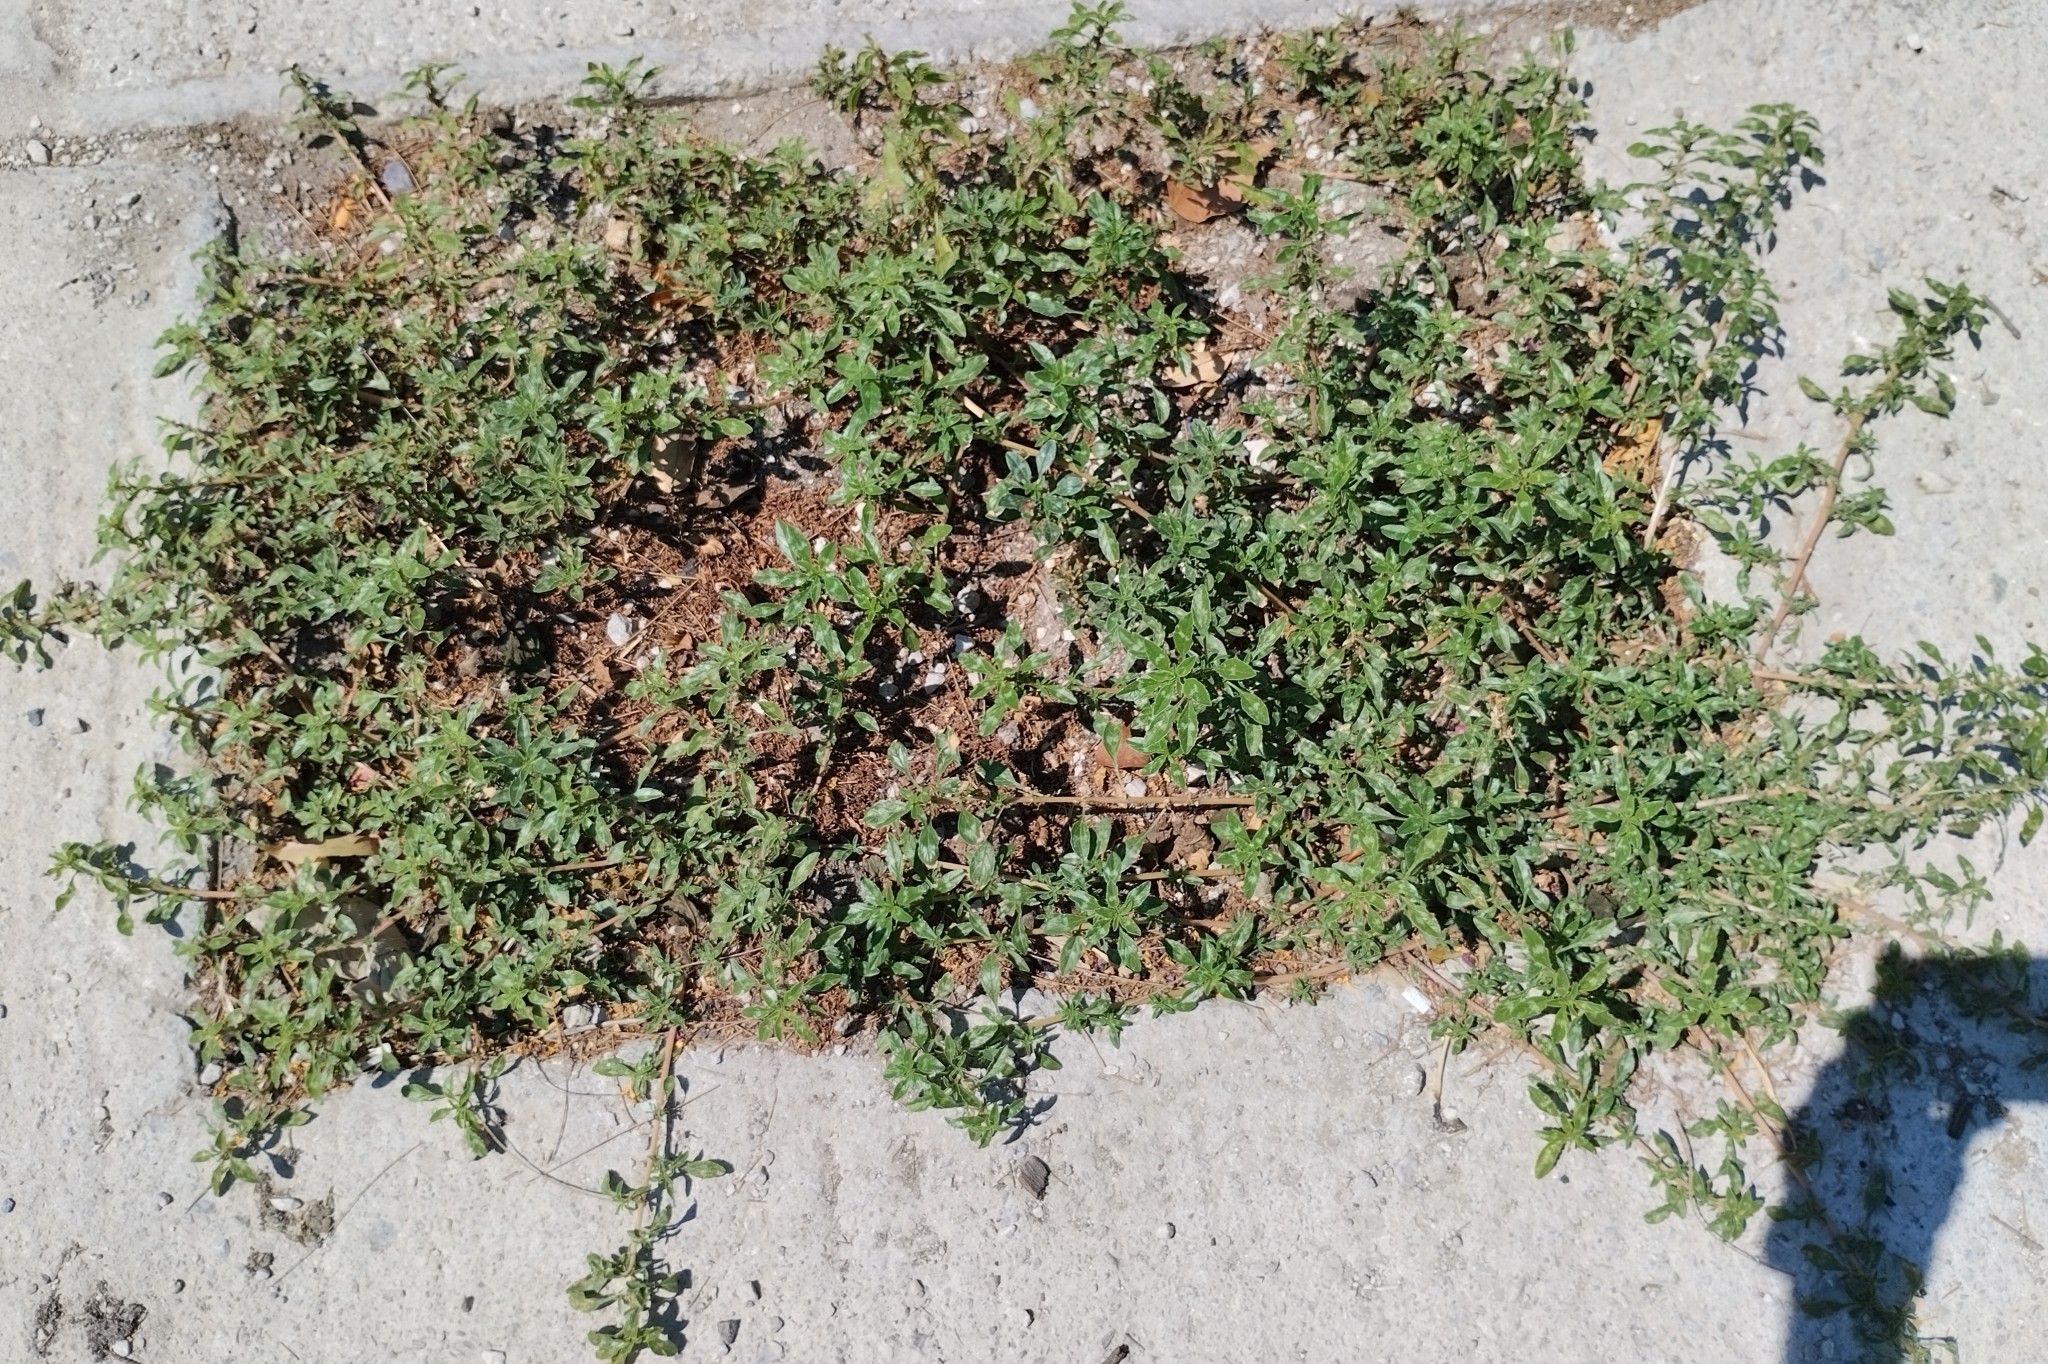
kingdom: Plantae
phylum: Tracheophyta
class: Magnoliopsida
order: Caryophyllales
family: Amaranthaceae
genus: Amaranthus
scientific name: Amaranthus blitoides
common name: Prostrate pigweed
